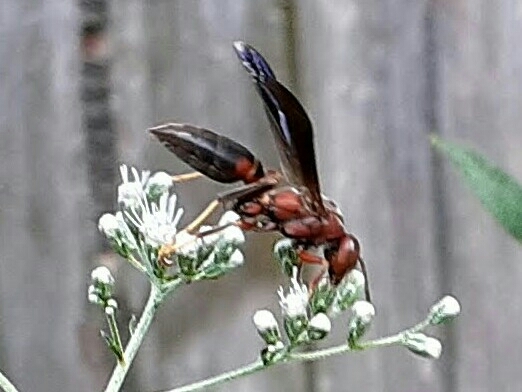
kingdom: Animalia
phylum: Arthropoda
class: Insecta
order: Hymenoptera
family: Eumenidae
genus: Polistes
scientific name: Polistes metricus
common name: Metric paper wasp
